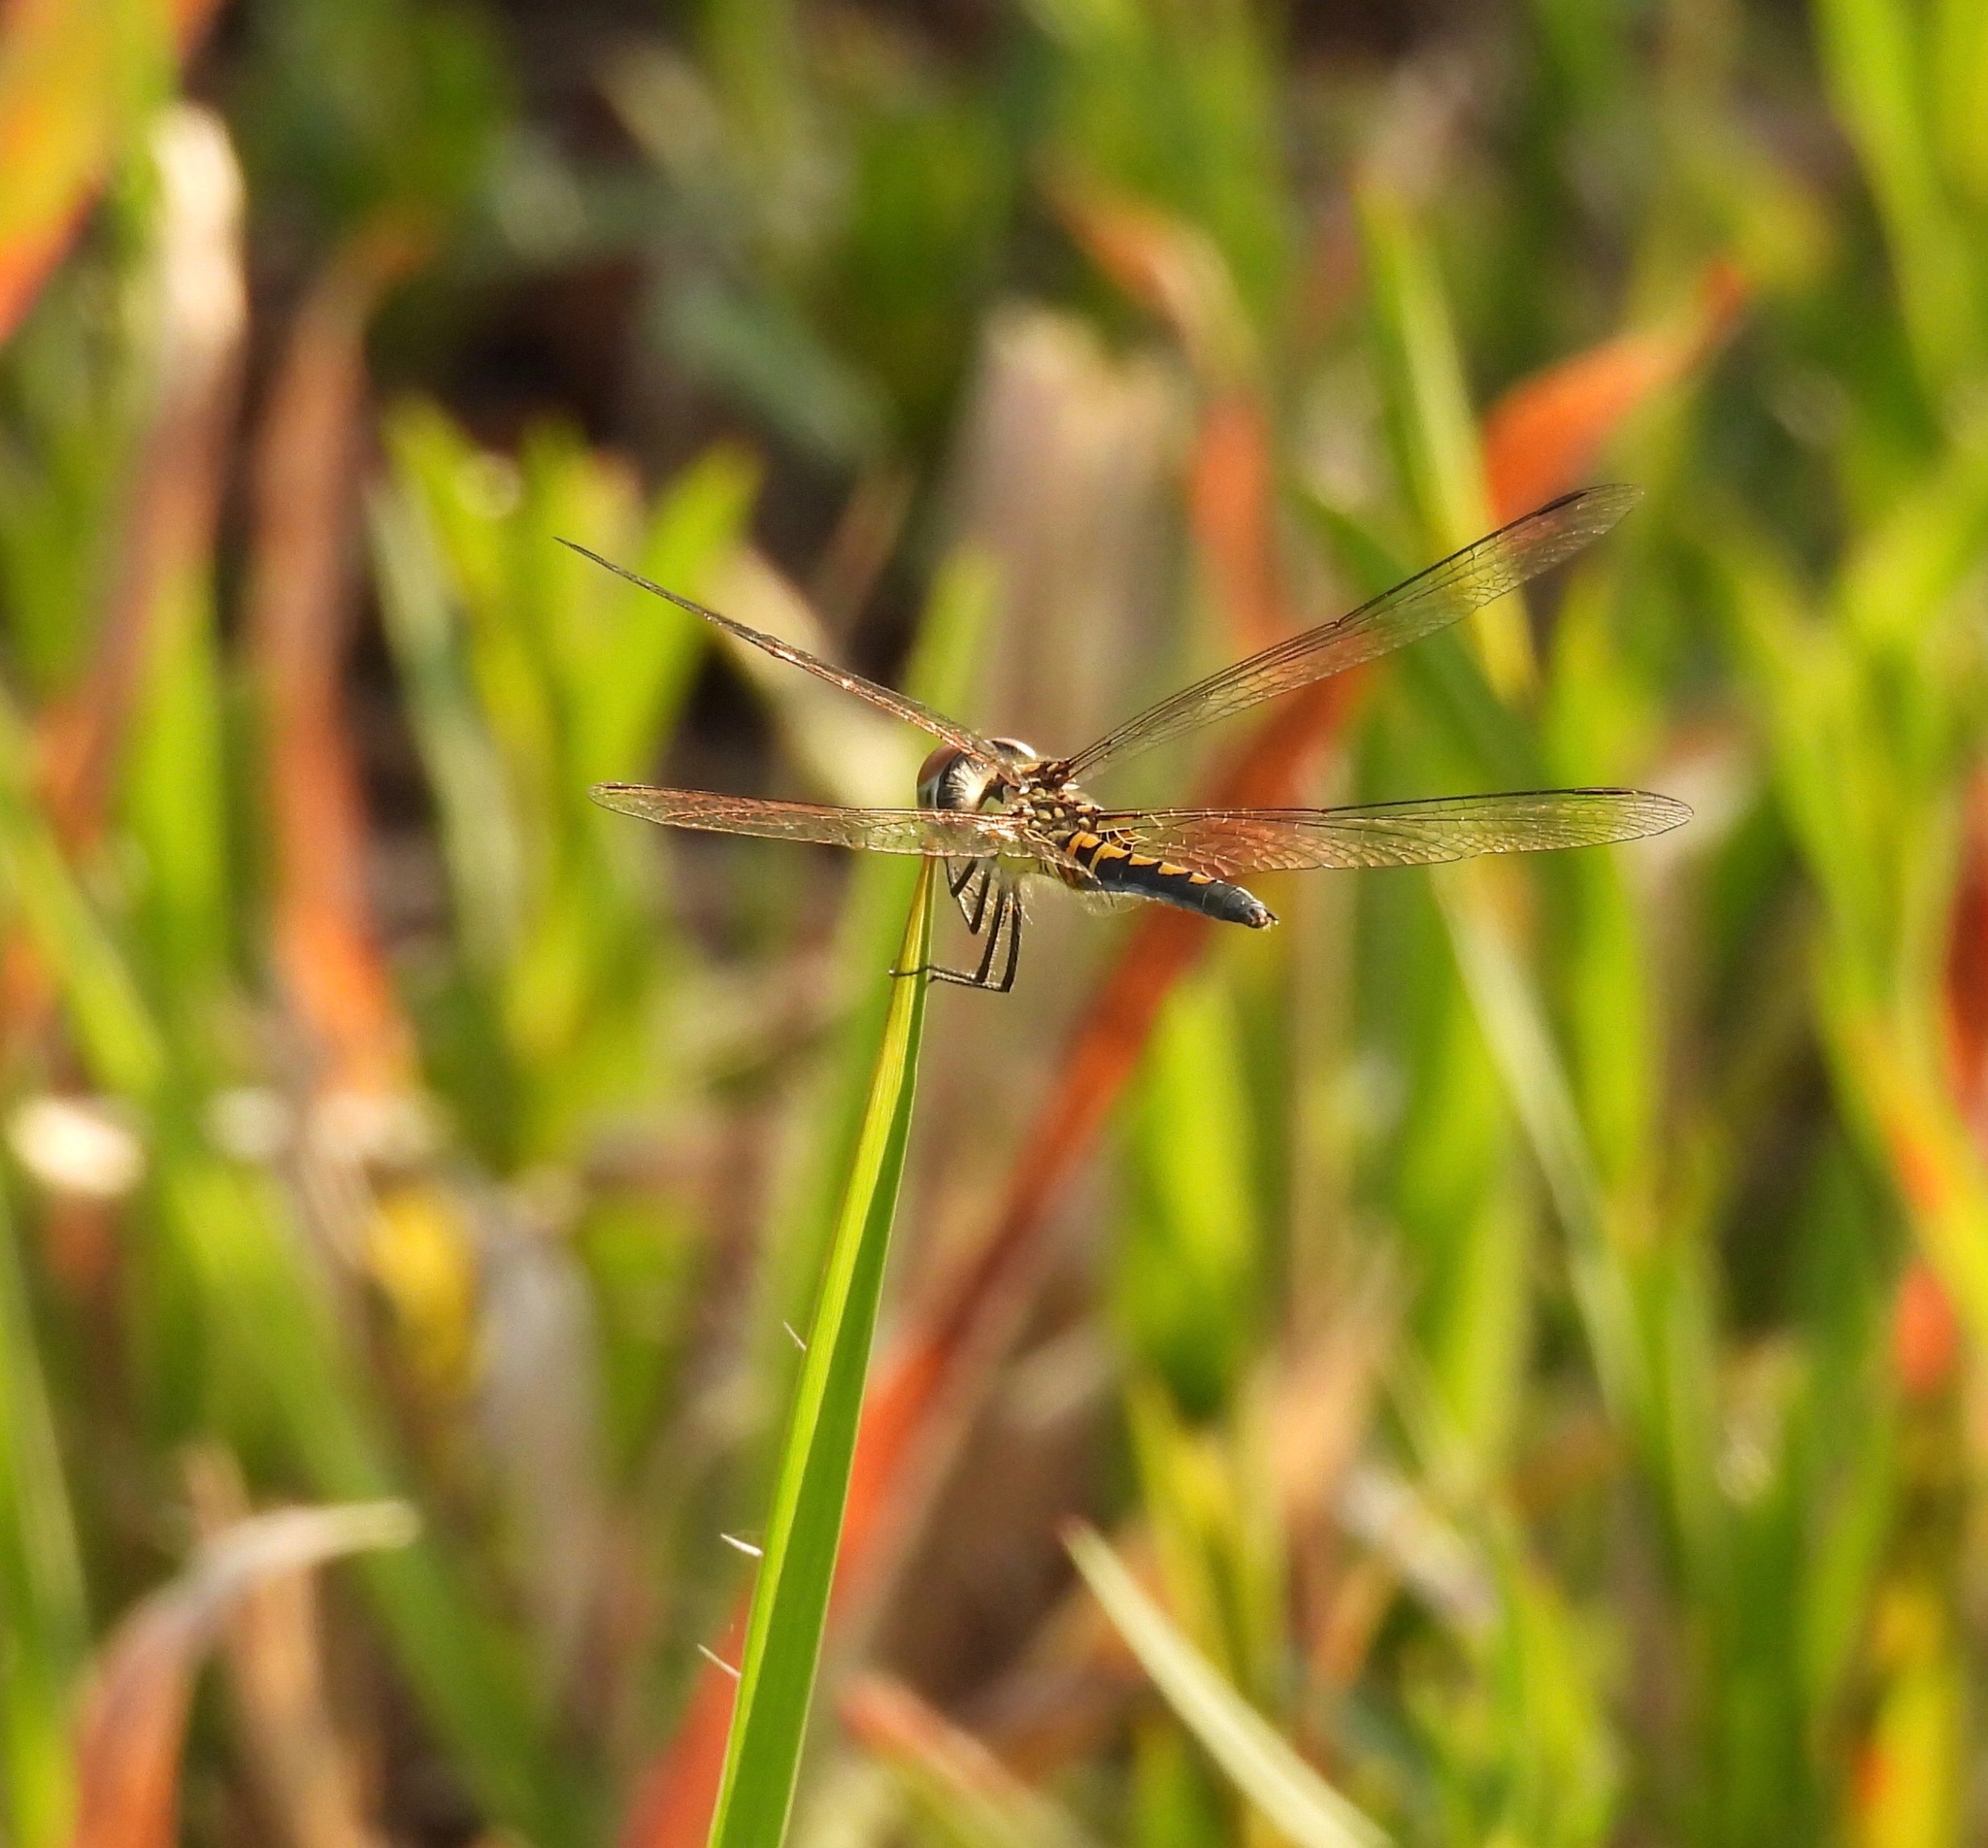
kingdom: Animalia
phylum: Arthropoda
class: Insecta
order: Odonata
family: Libellulidae
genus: Celithemis
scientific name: Celithemis ornata
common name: Ornate pennant
